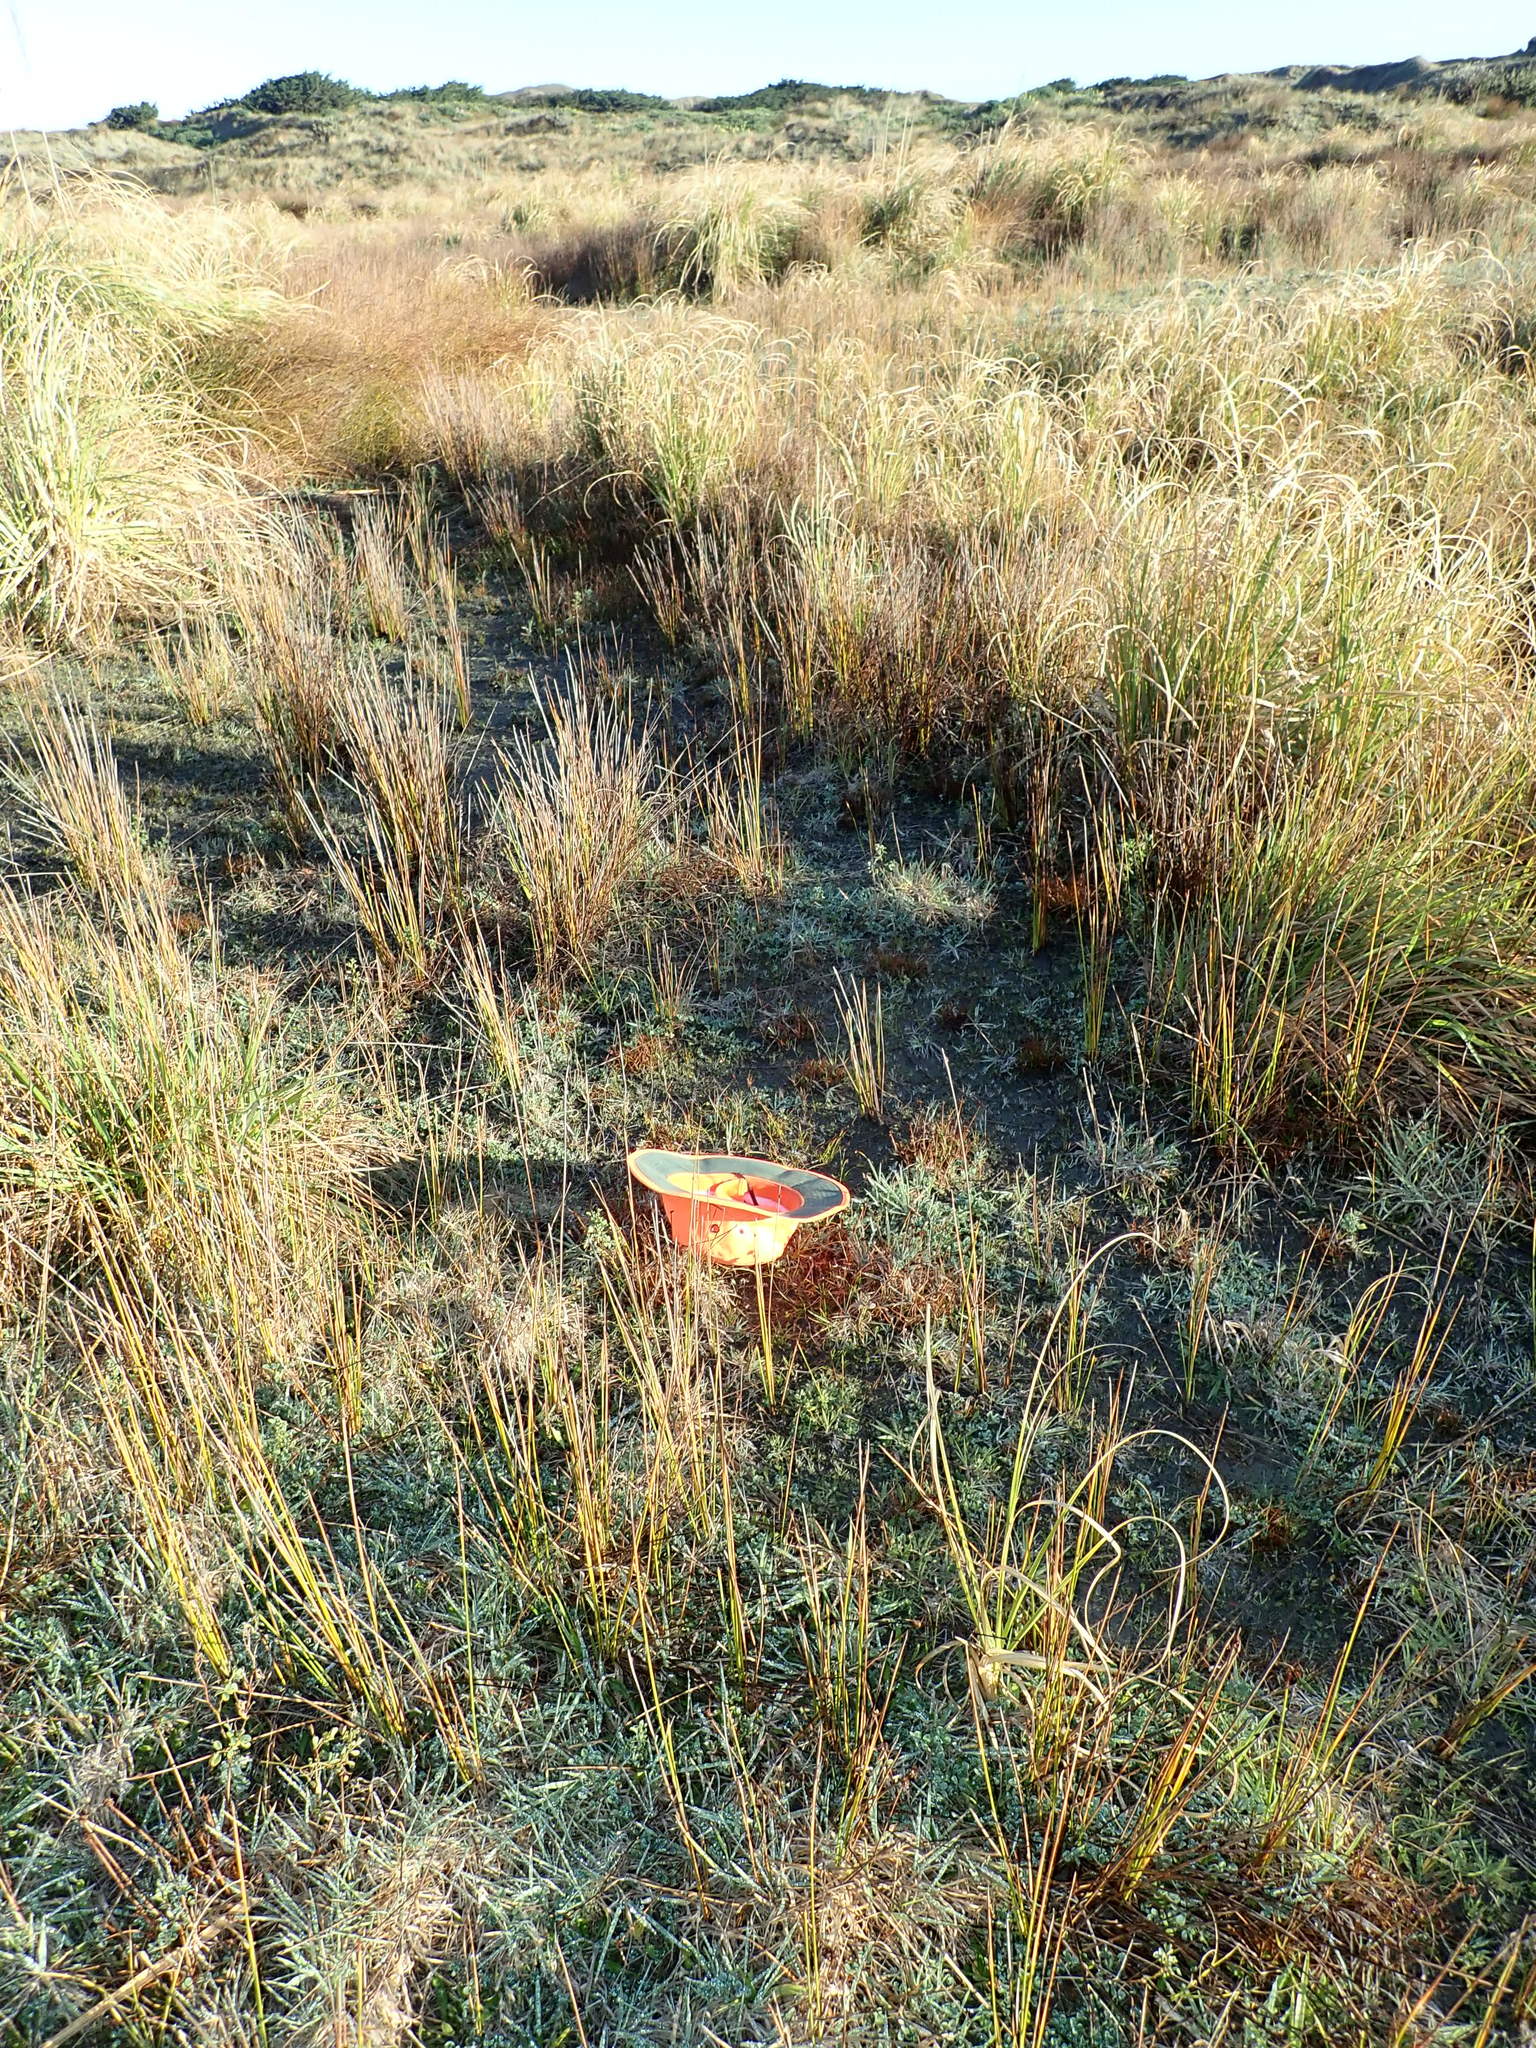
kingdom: Plantae
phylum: Tracheophyta
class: Liliopsida
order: Poales
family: Juncaceae
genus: Juncus
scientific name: Juncus caespiticius
